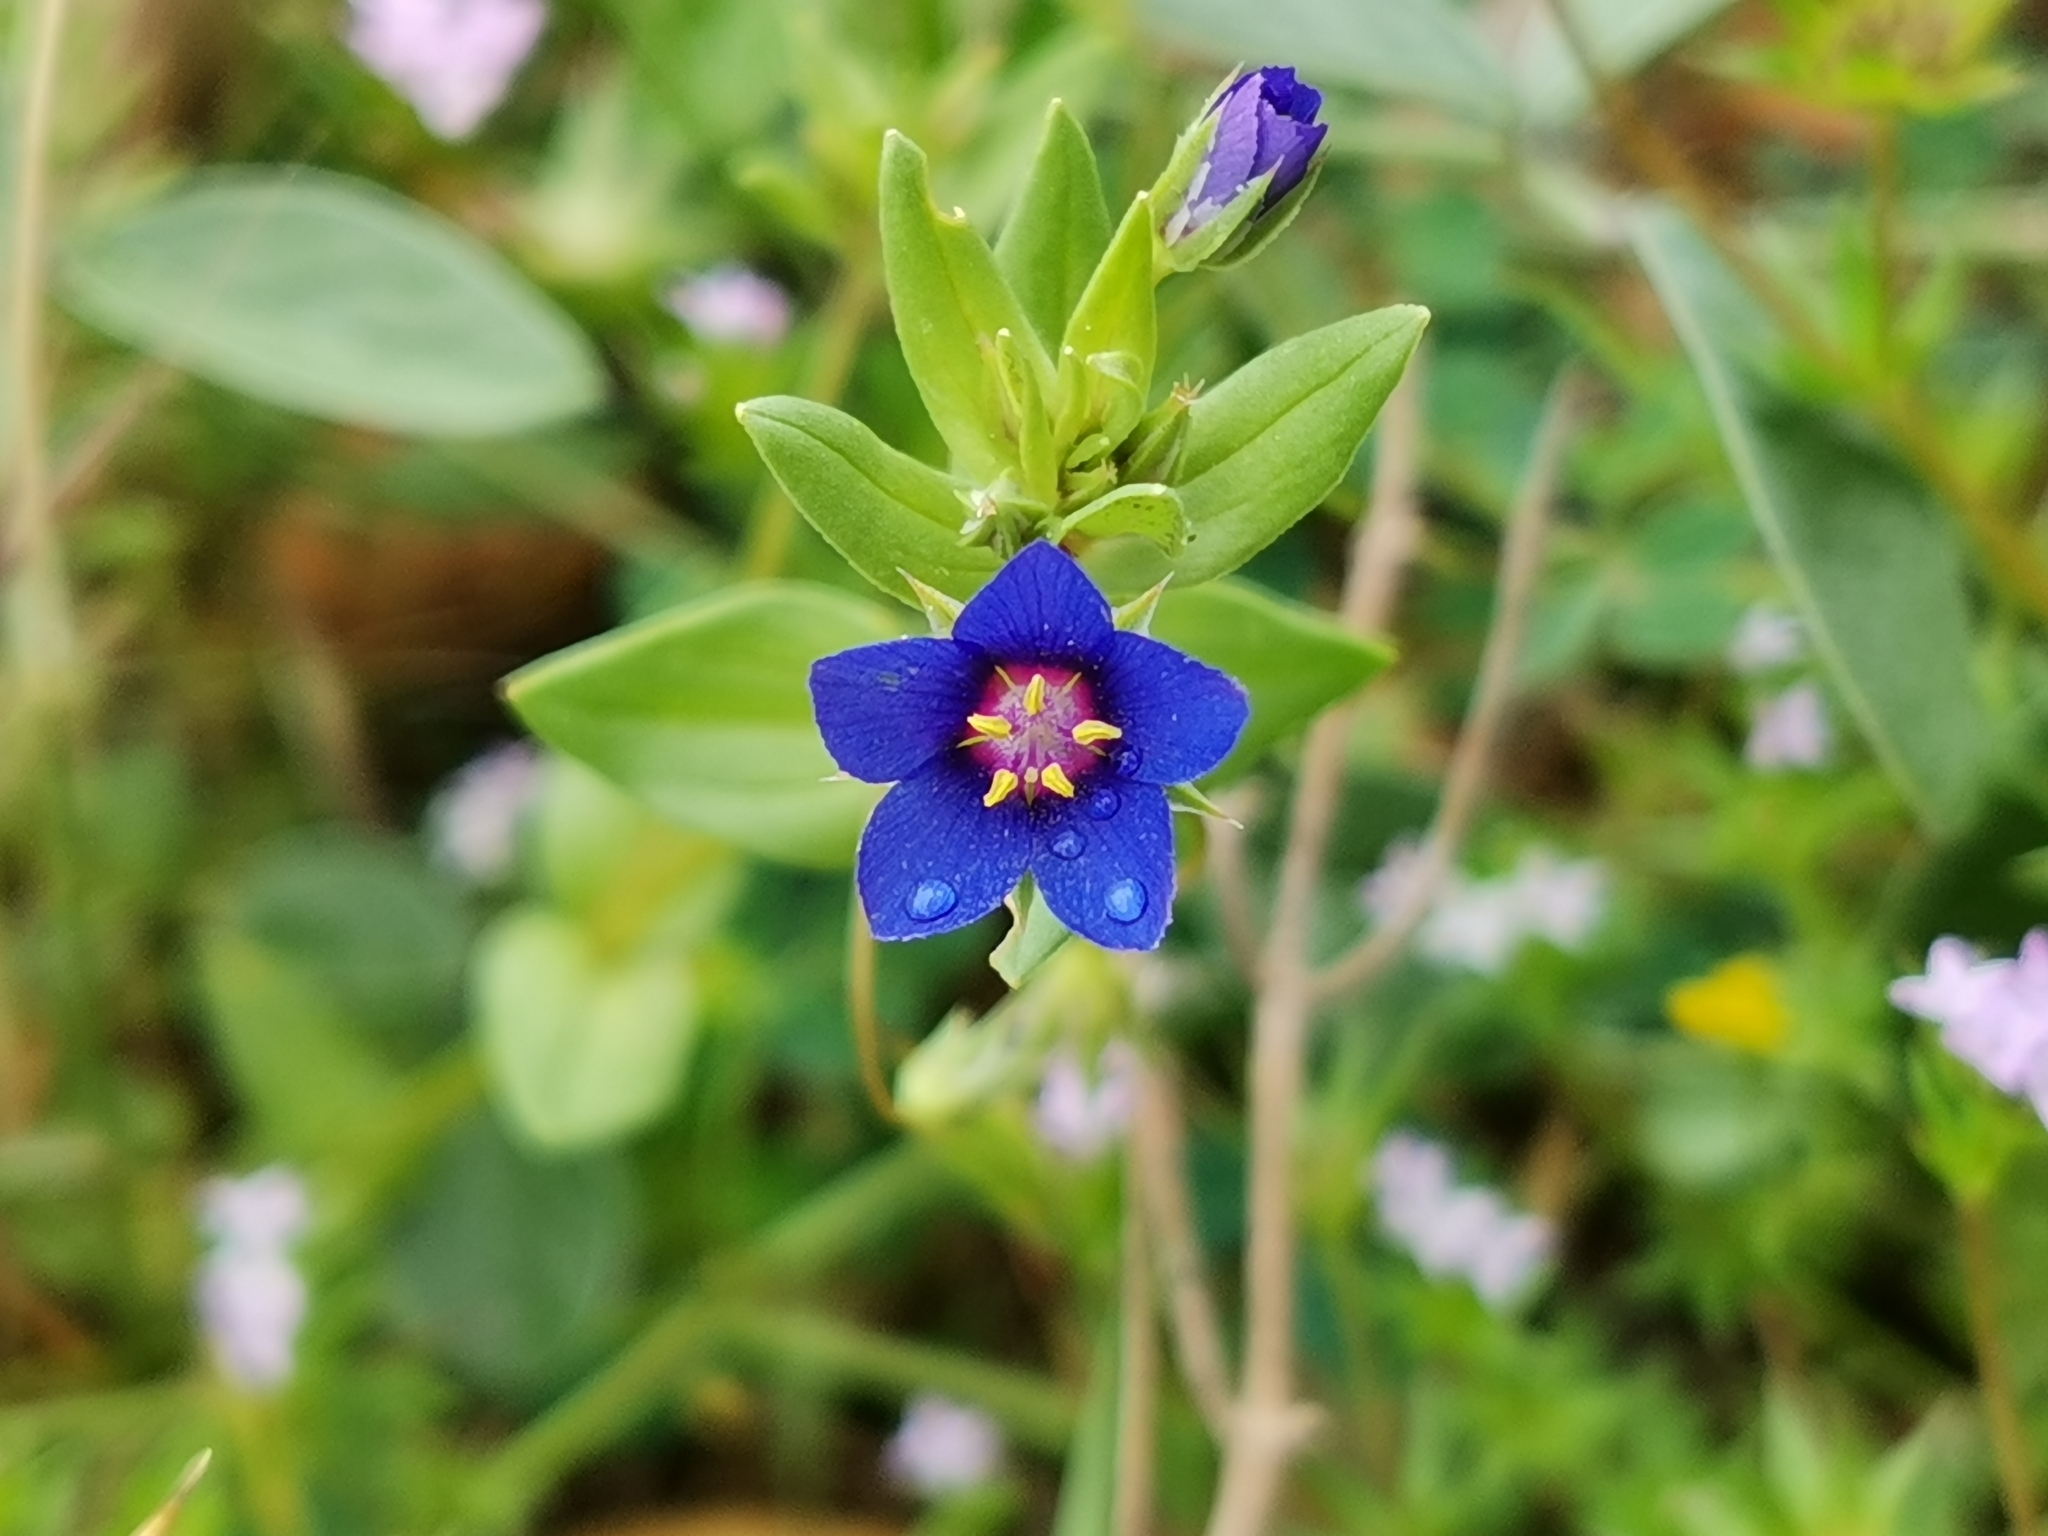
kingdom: Plantae
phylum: Tracheophyta
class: Magnoliopsida
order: Ericales
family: Primulaceae
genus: Lysimachia
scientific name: Lysimachia foemina
